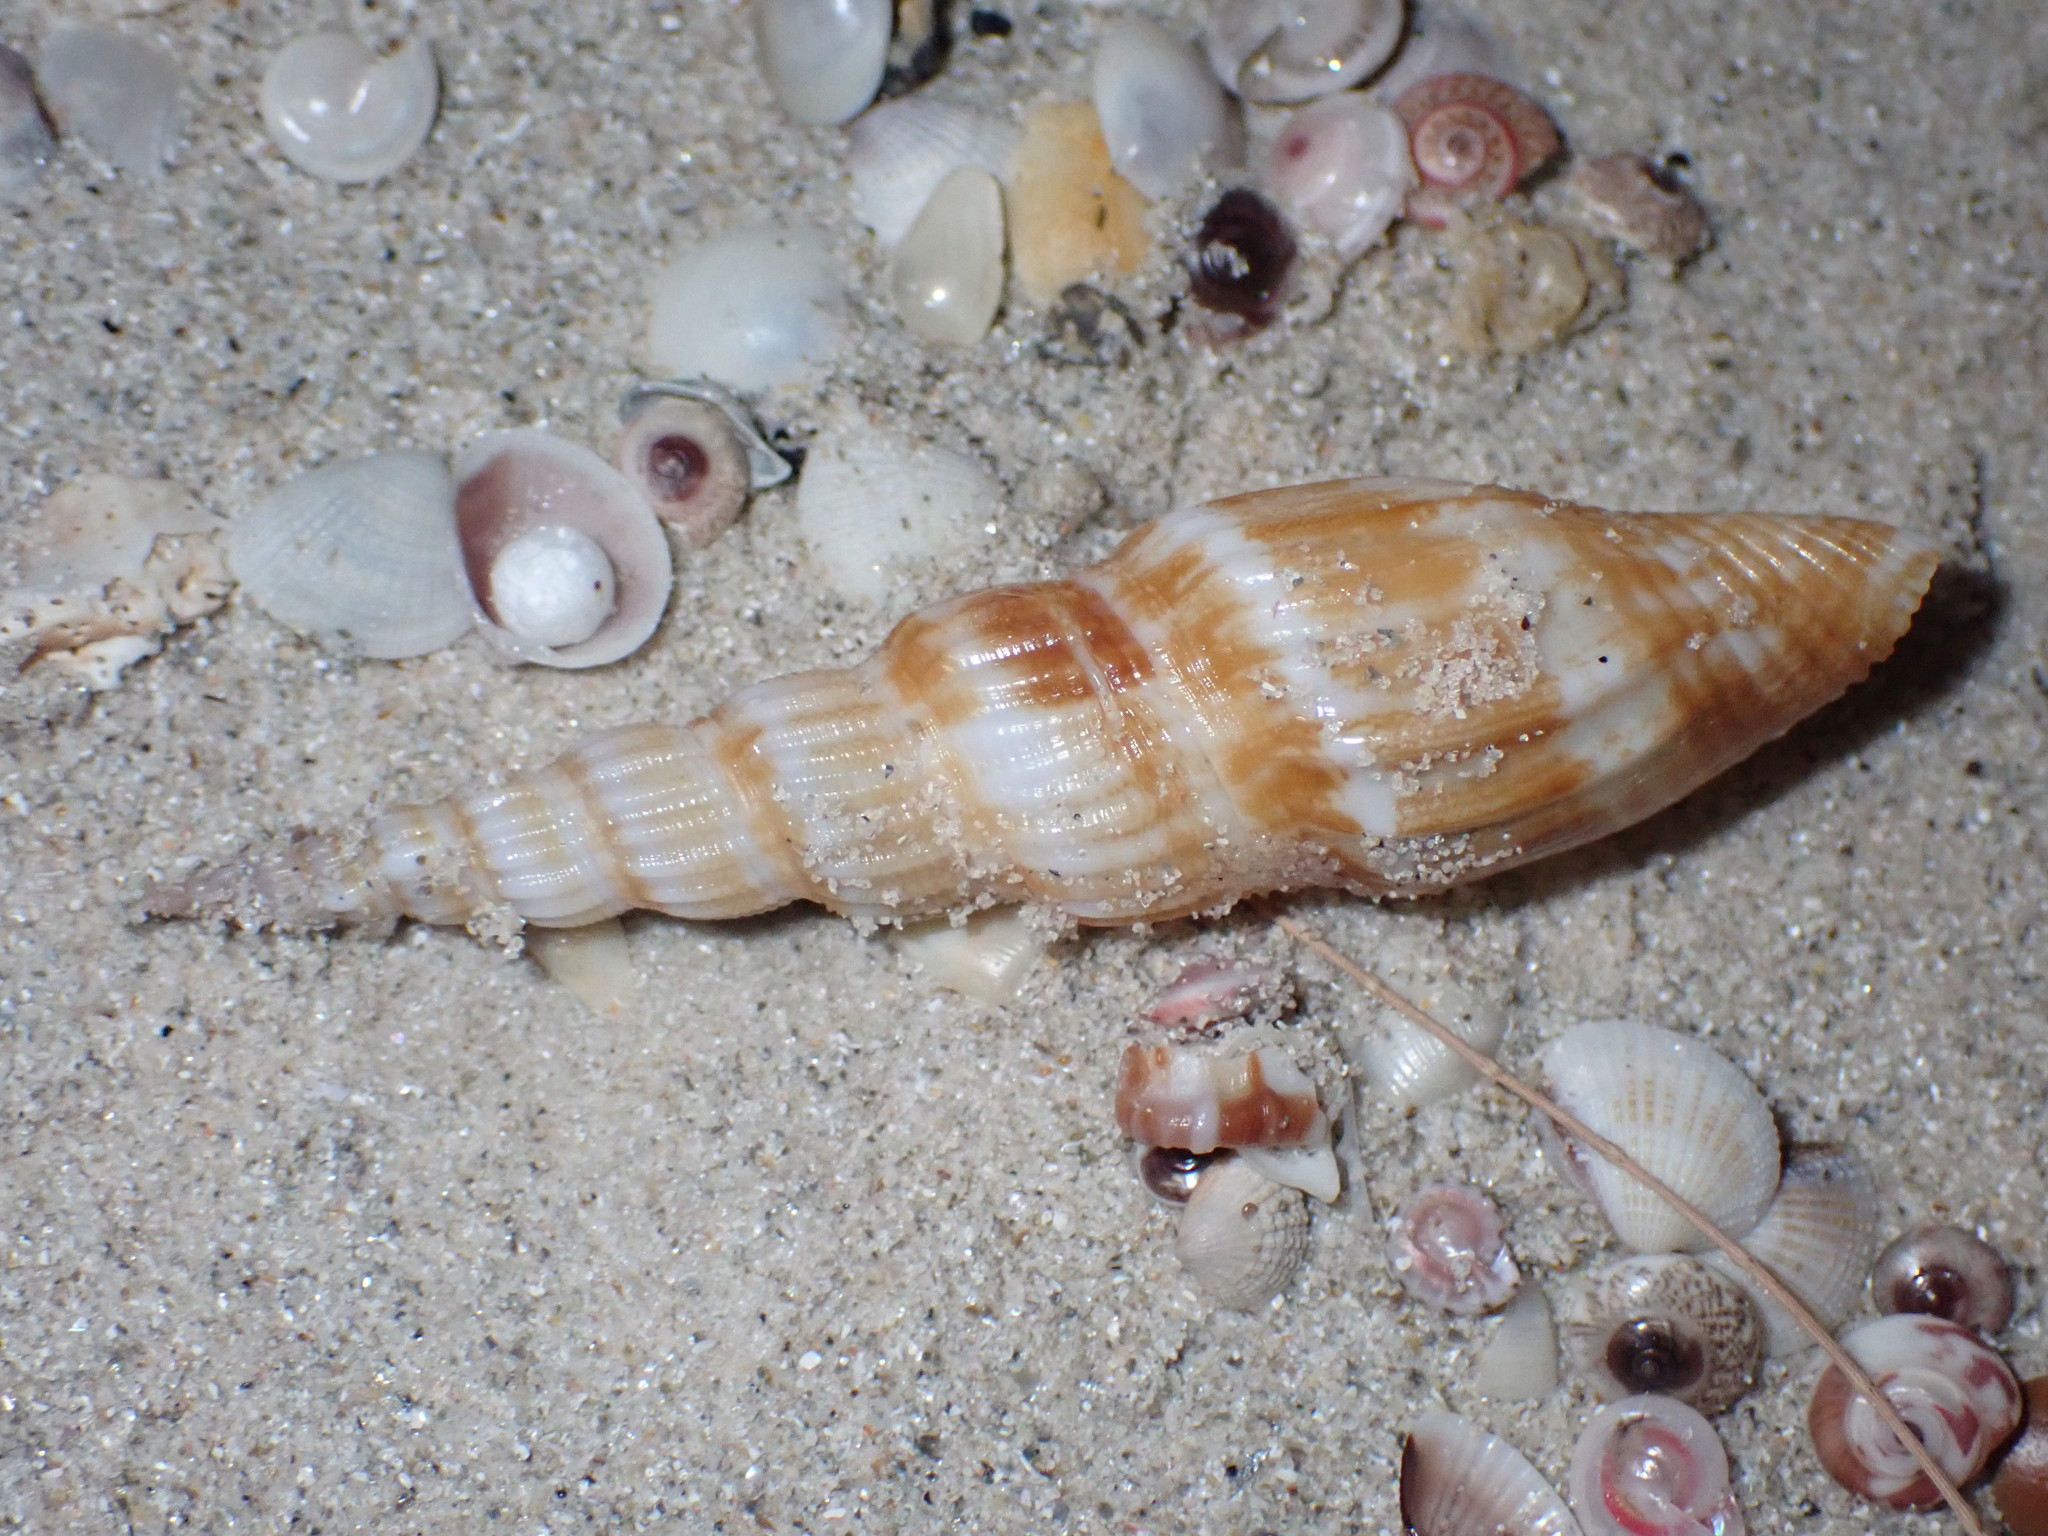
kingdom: Animalia
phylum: Mollusca
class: Gastropoda
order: Littorinimorpha
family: Strombidae
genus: Doxander
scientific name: Doxander vittatus
